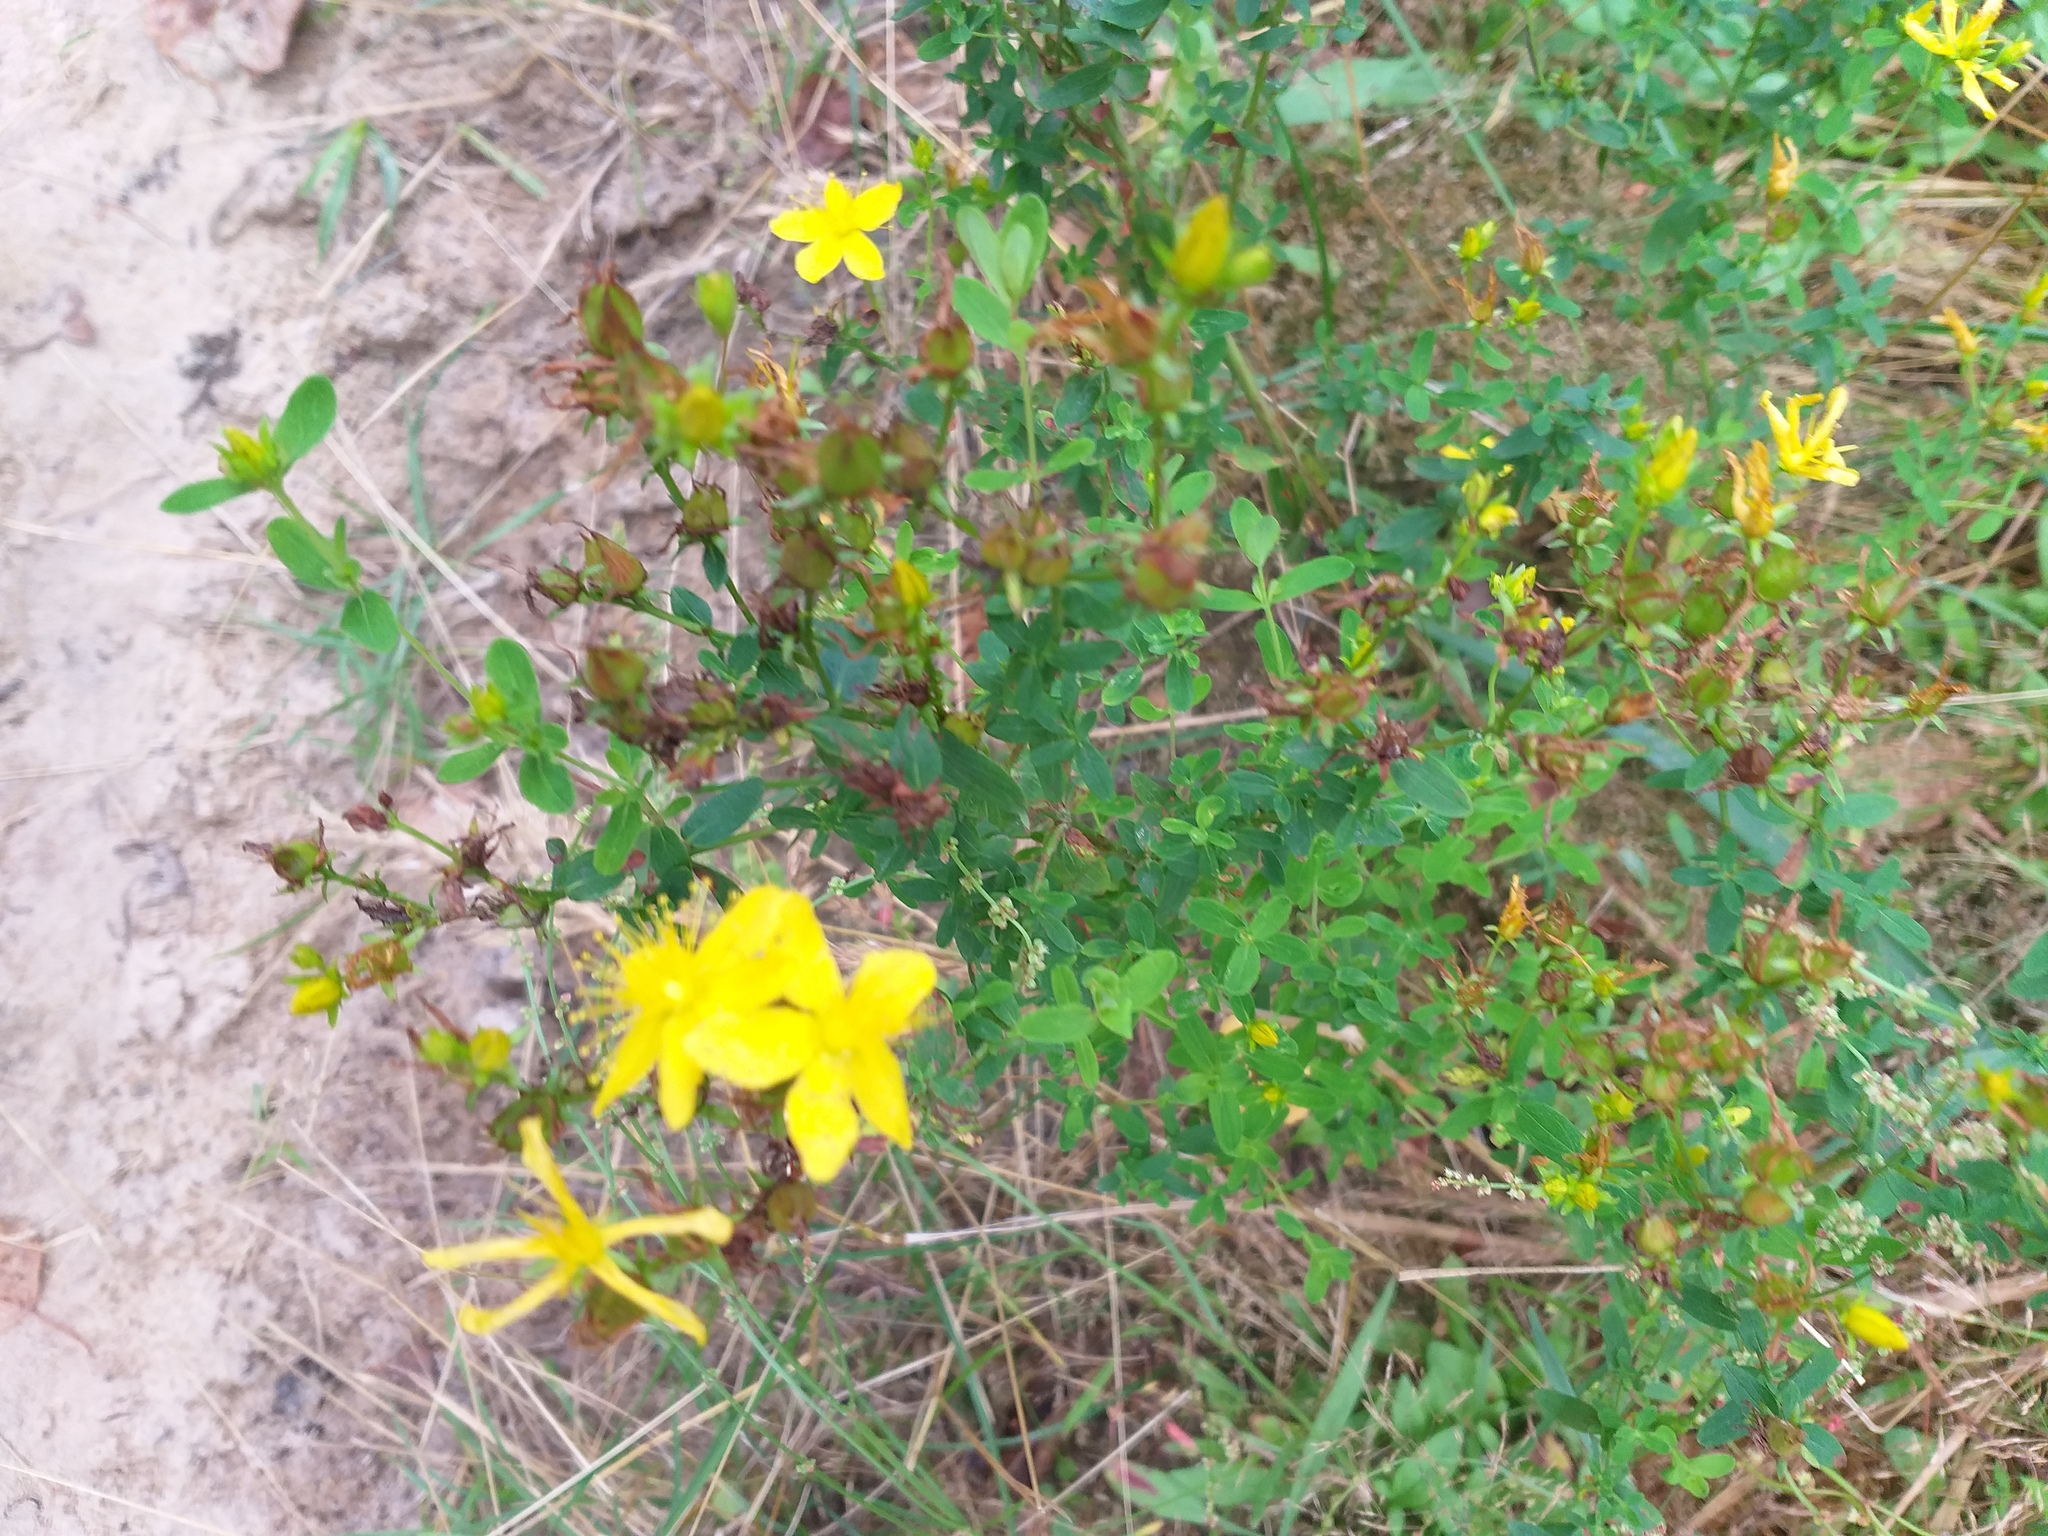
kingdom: Plantae
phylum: Tracheophyta
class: Magnoliopsida
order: Malpighiales
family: Hypericaceae
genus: Hypericum
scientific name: Hypericum perforatum
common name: Common st. johnswort
